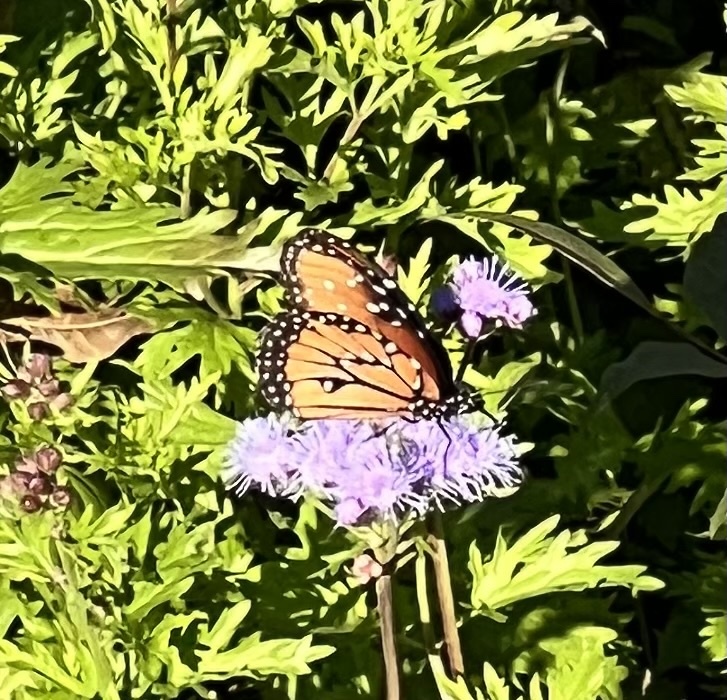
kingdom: Animalia
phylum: Arthropoda
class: Insecta
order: Lepidoptera
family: Nymphalidae
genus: Danaus
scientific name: Danaus gilippus
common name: Queen
